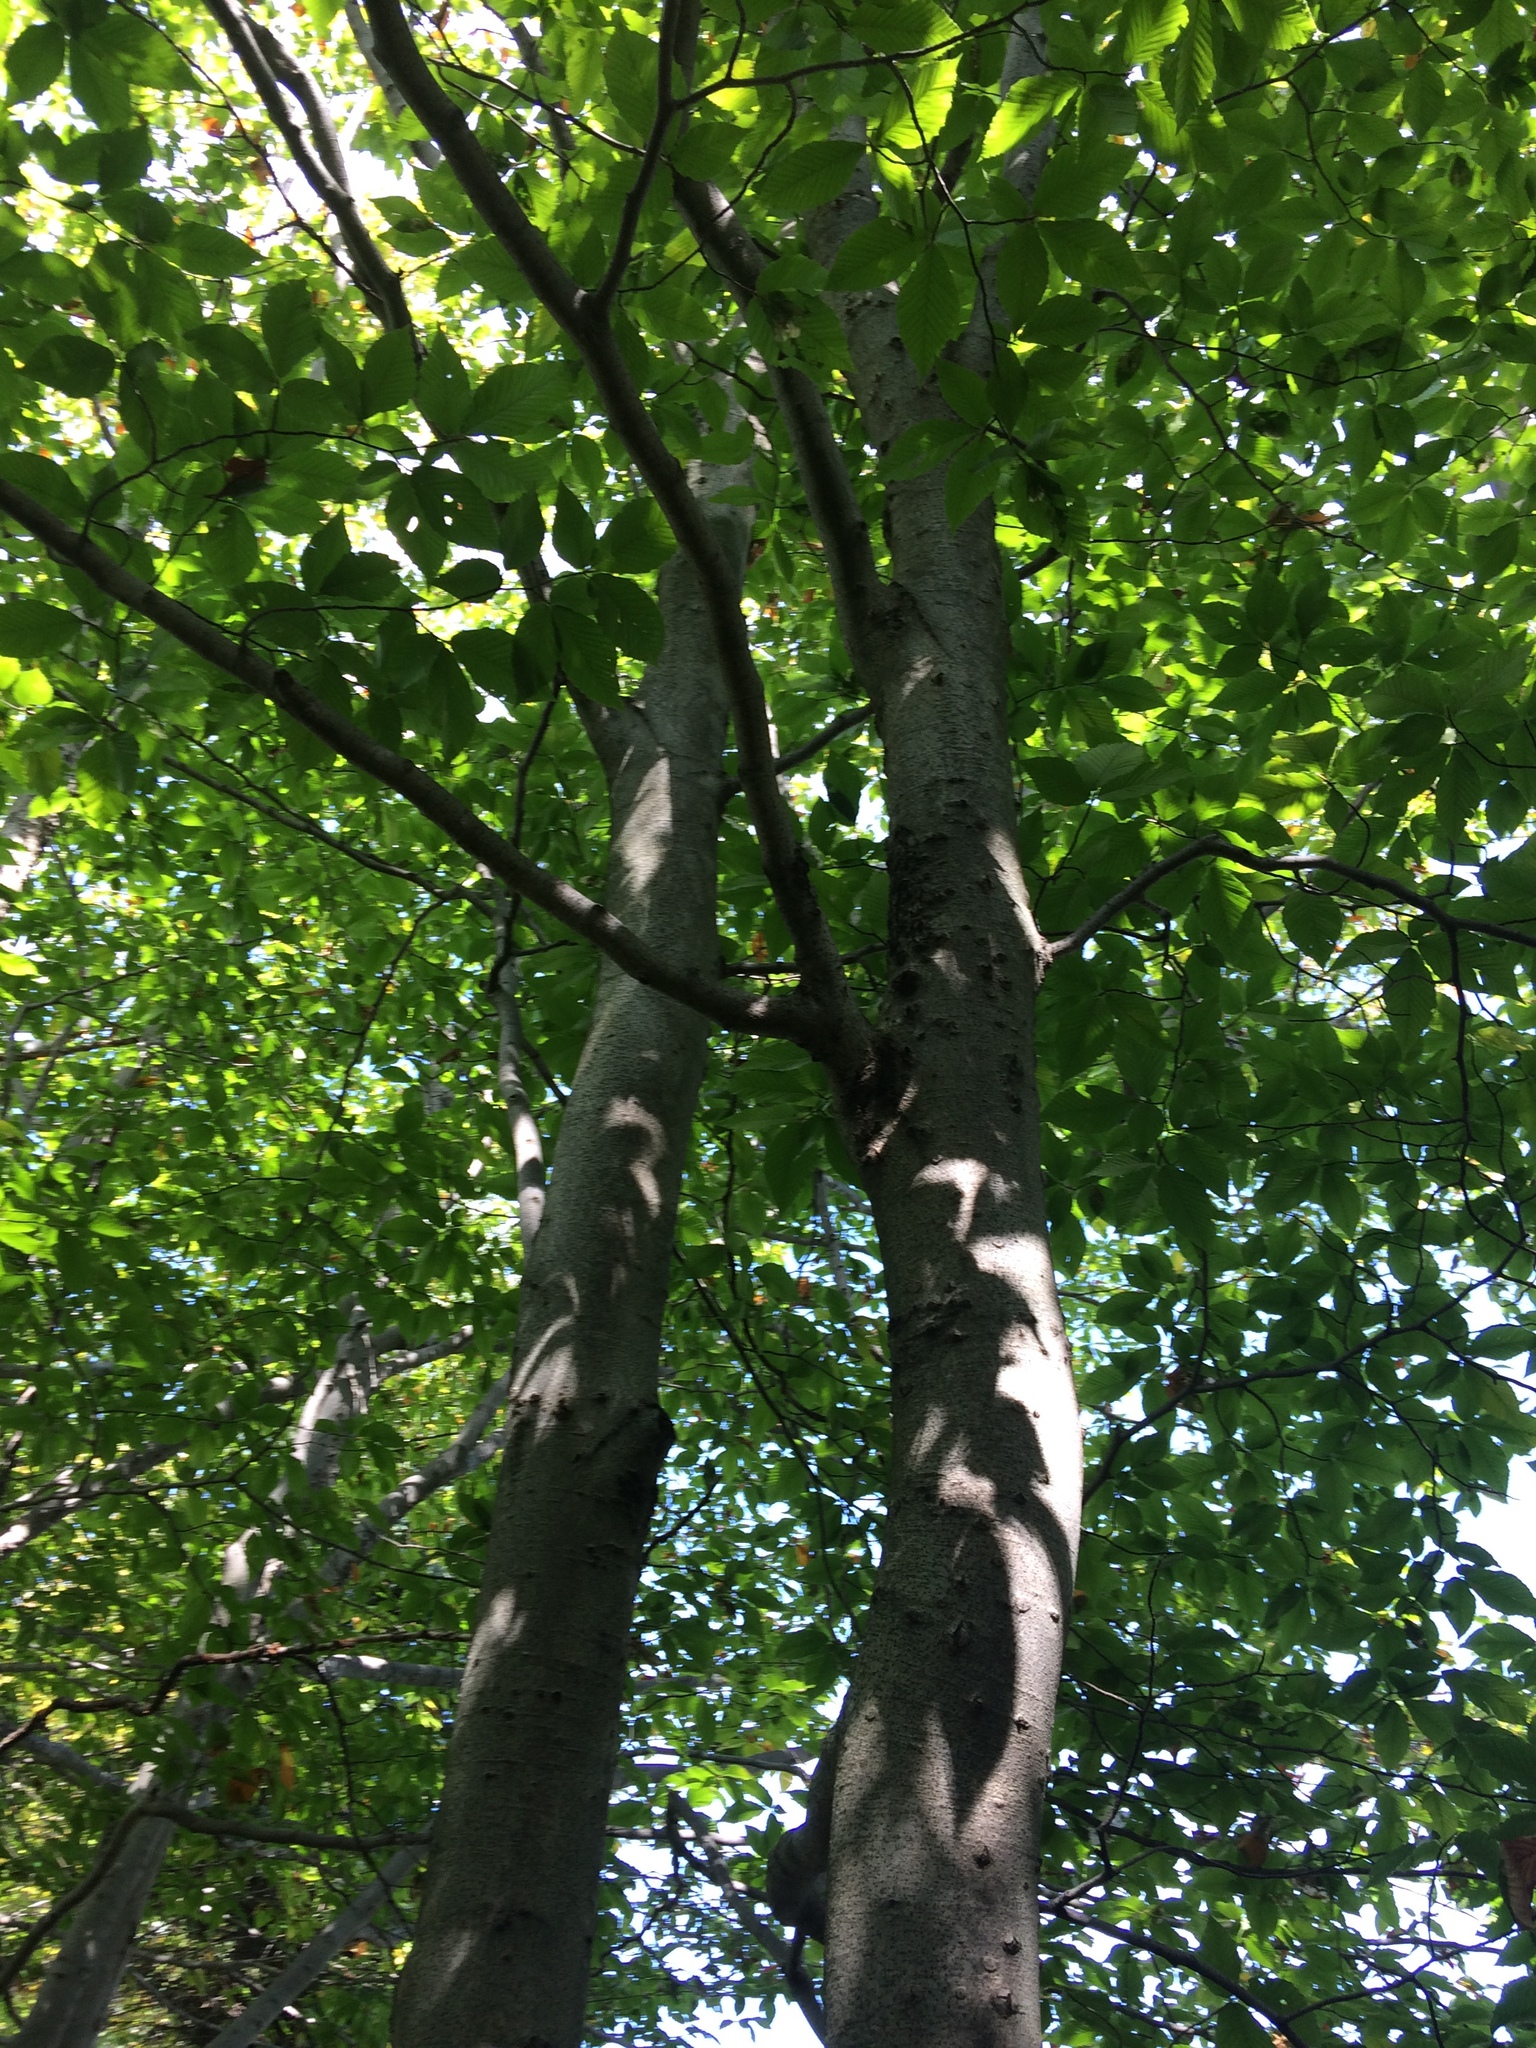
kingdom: Plantae
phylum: Tracheophyta
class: Magnoliopsida
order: Fagales
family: Fagaceae
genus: Fagus
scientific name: Fagus grandifolia
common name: American beech
